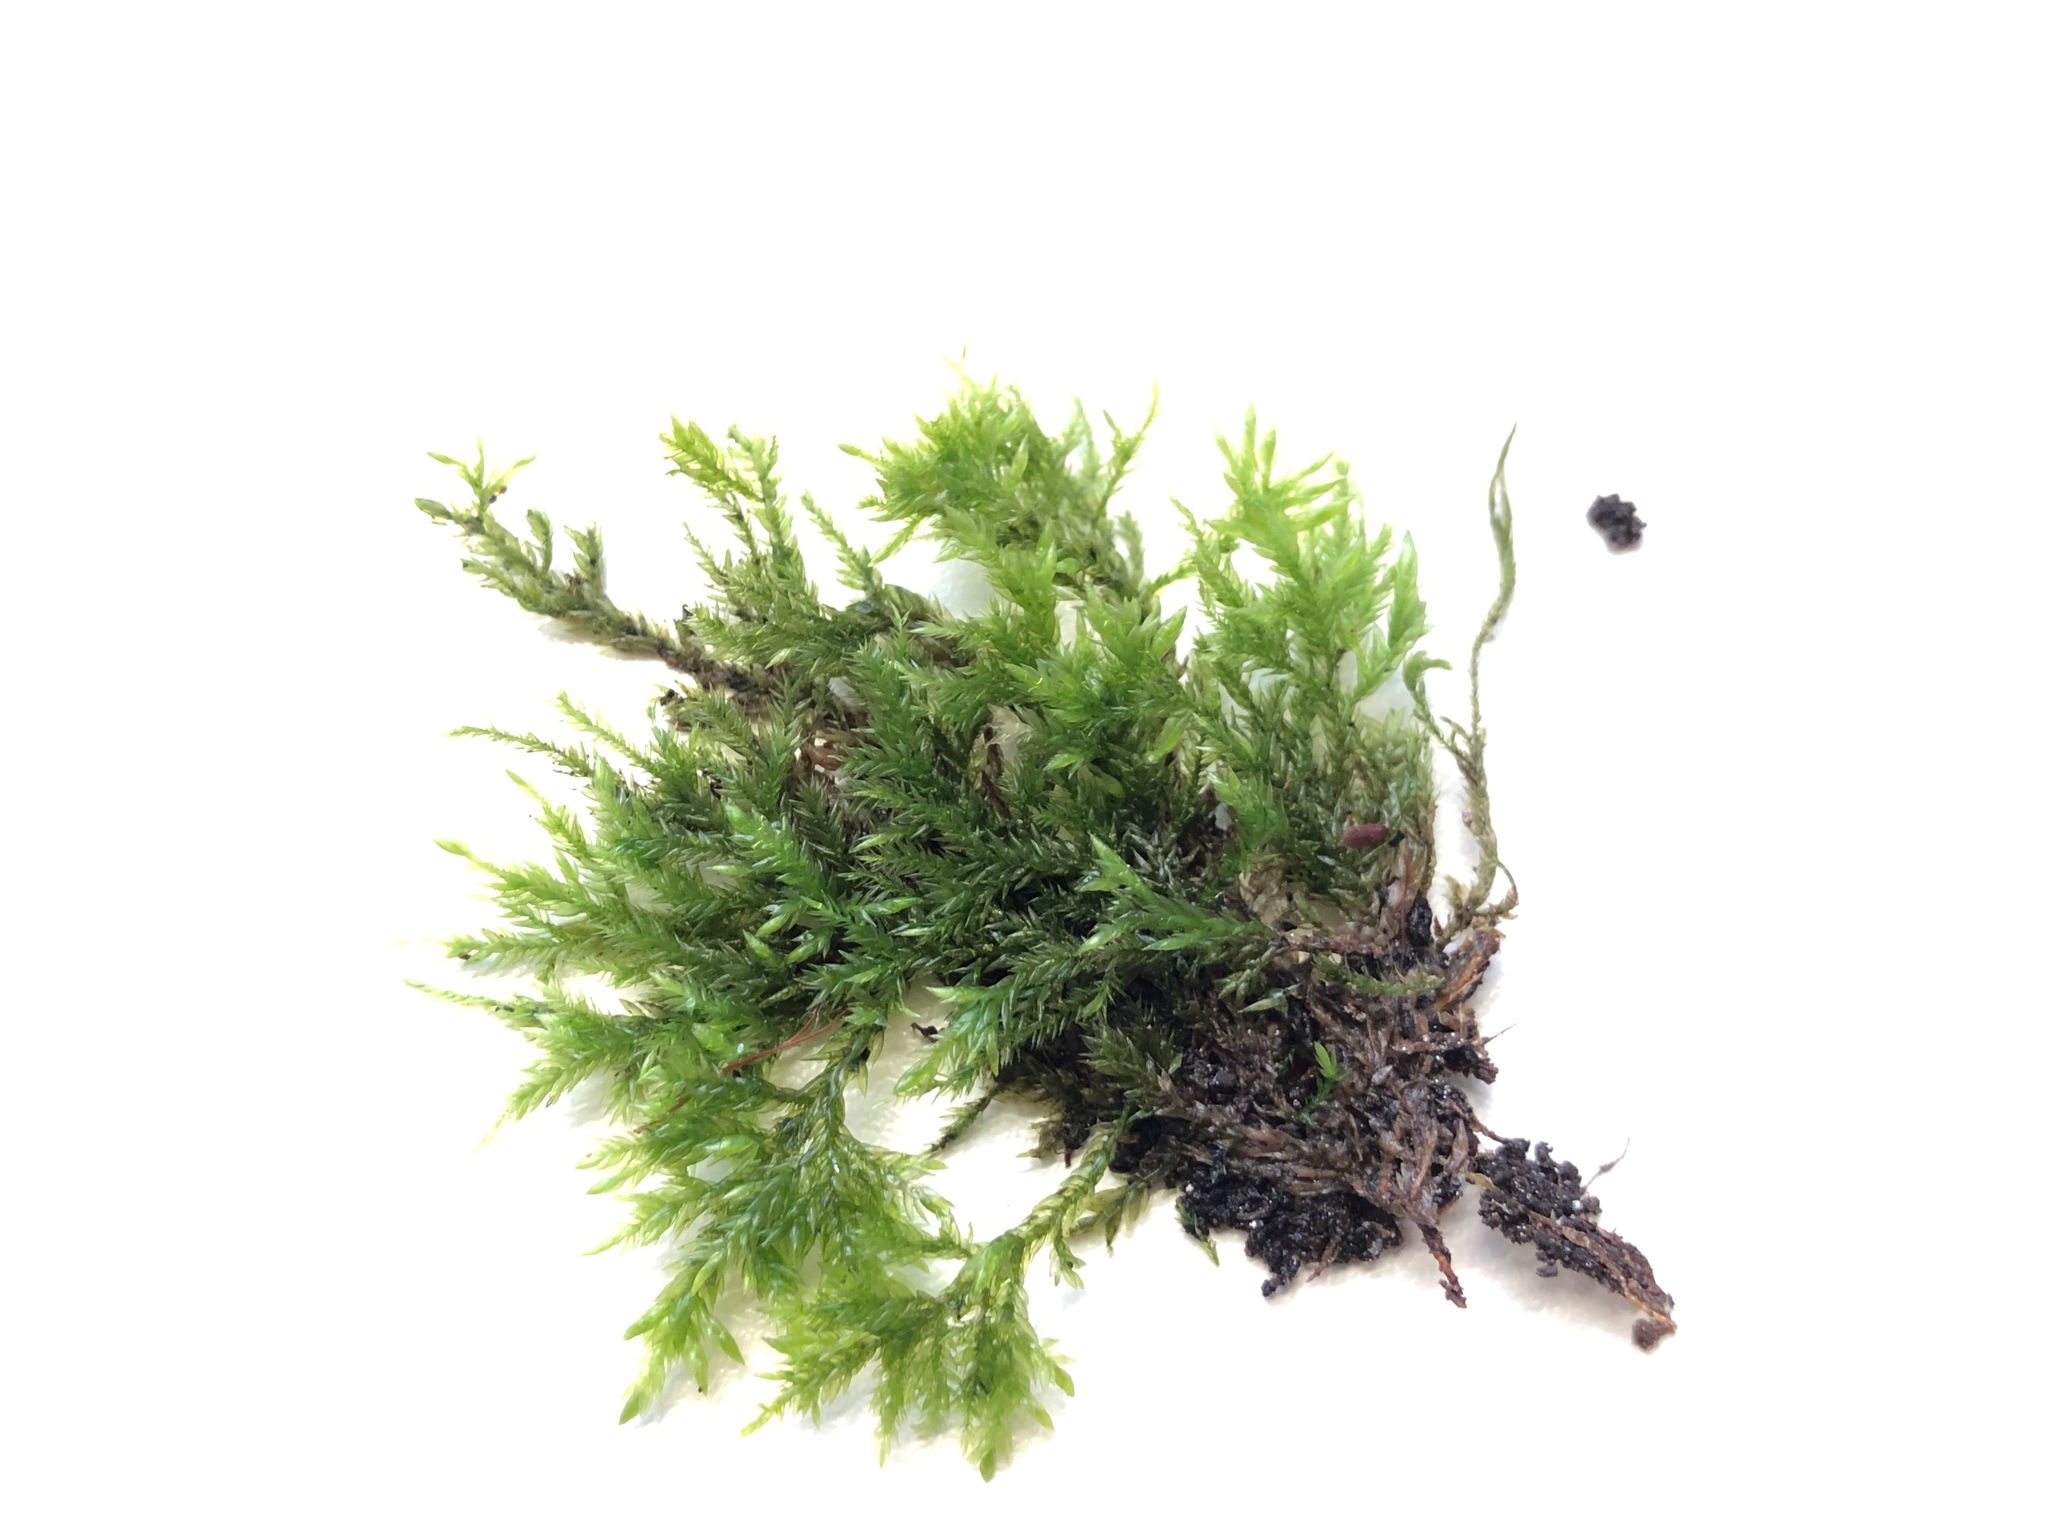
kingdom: Plantae
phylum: Bryophyta
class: Bryopsida
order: Hypnales
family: Lembophyllaceae
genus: Isothecium
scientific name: Isothecium alopecuroides
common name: Larger mouse-tail moss
